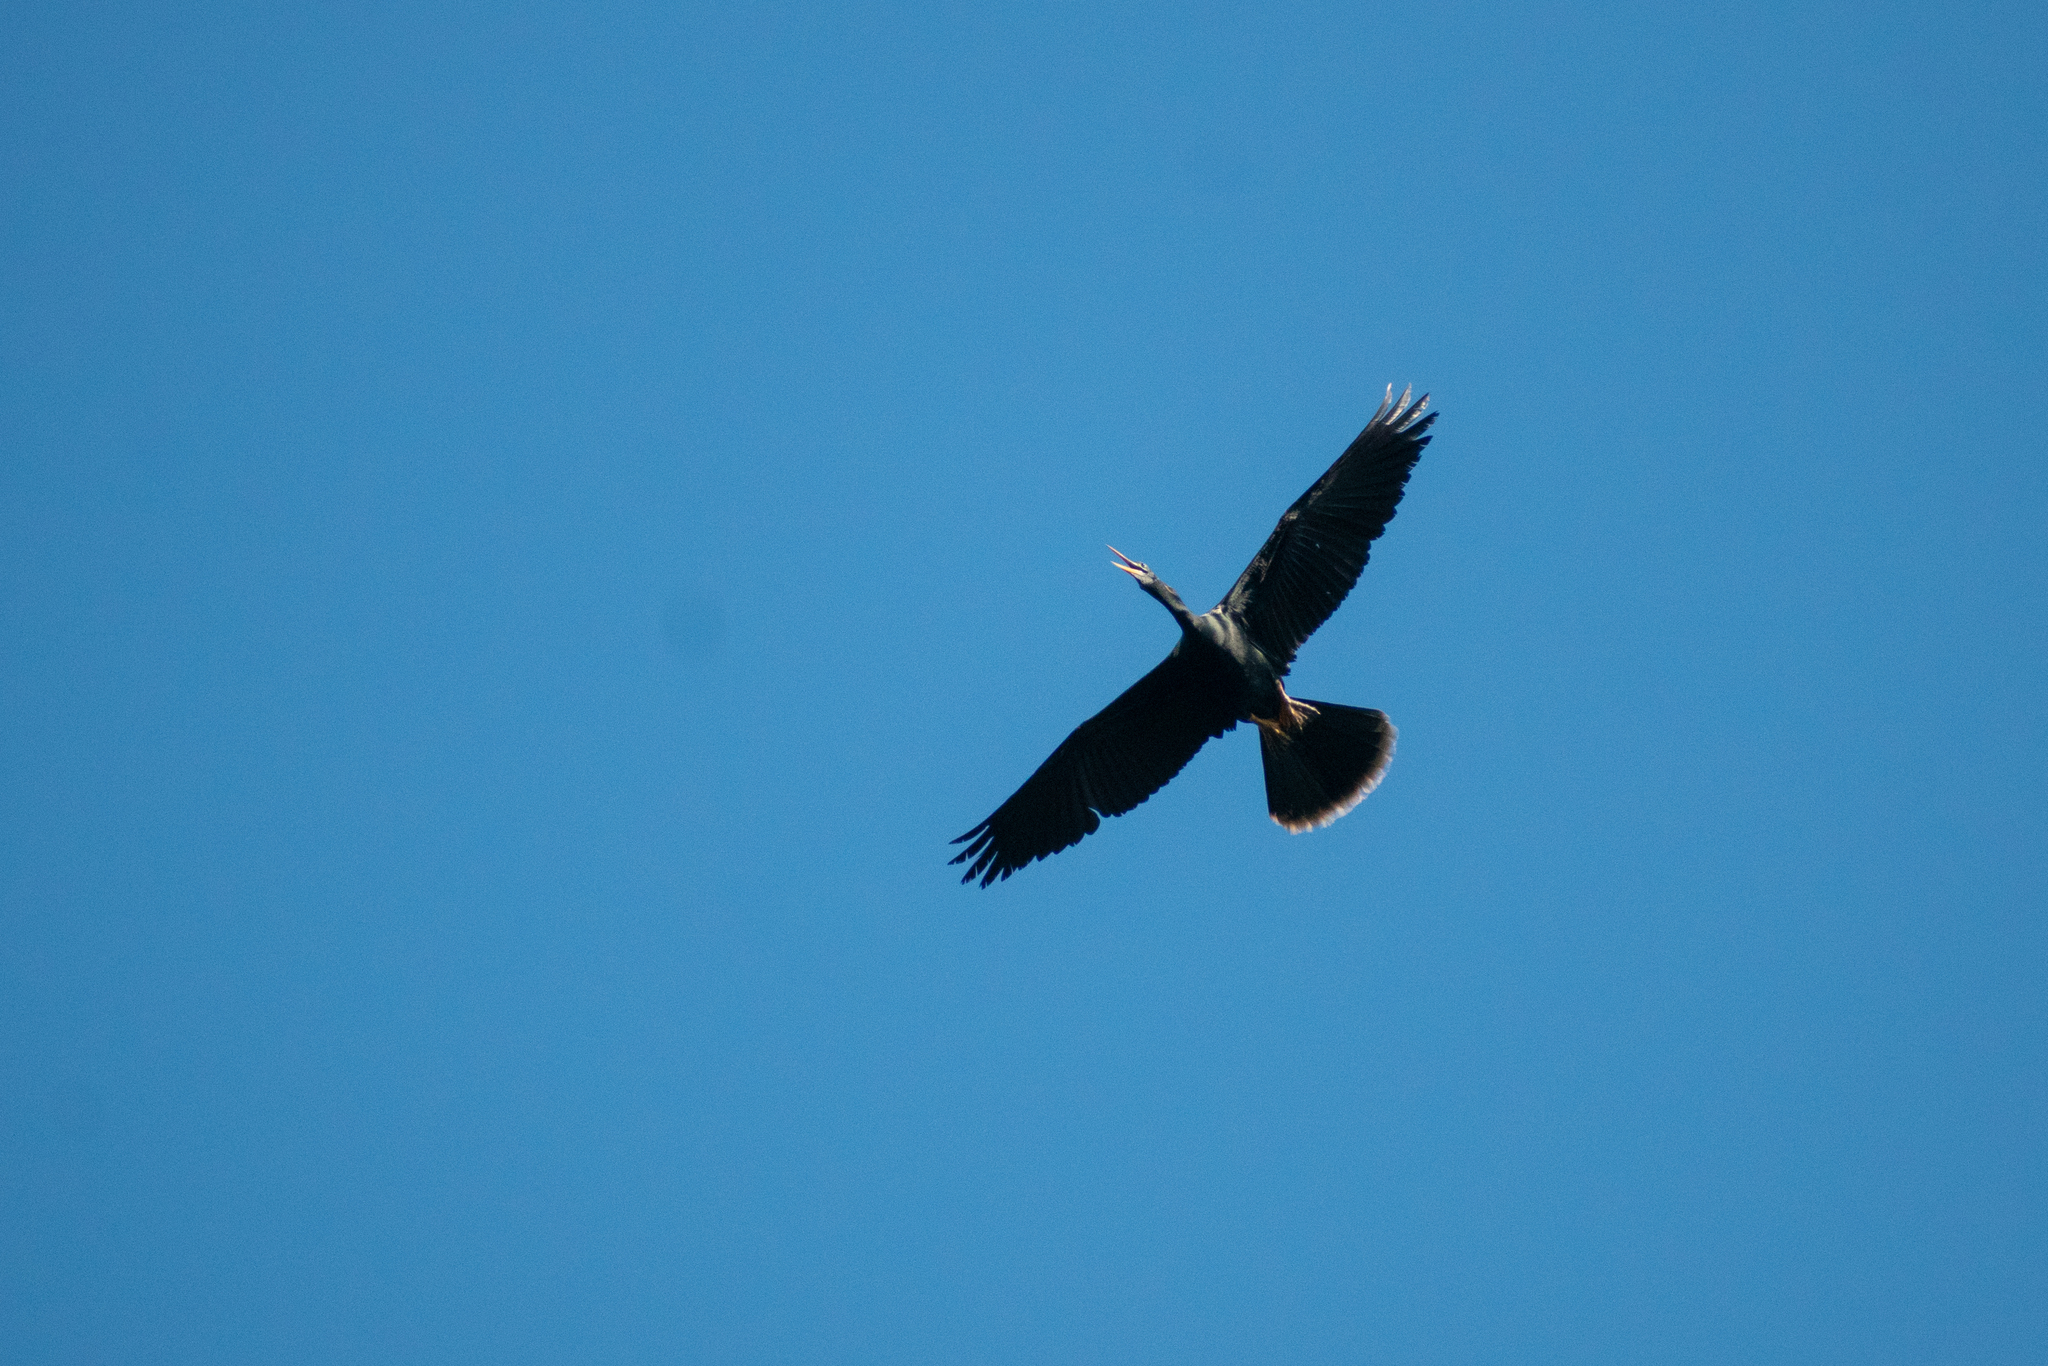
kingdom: Animalia
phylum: Chordata
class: Aves
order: Suliformes
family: Anhingidae
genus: Anhinga
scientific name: Anhinga anhinga
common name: Anhinga
